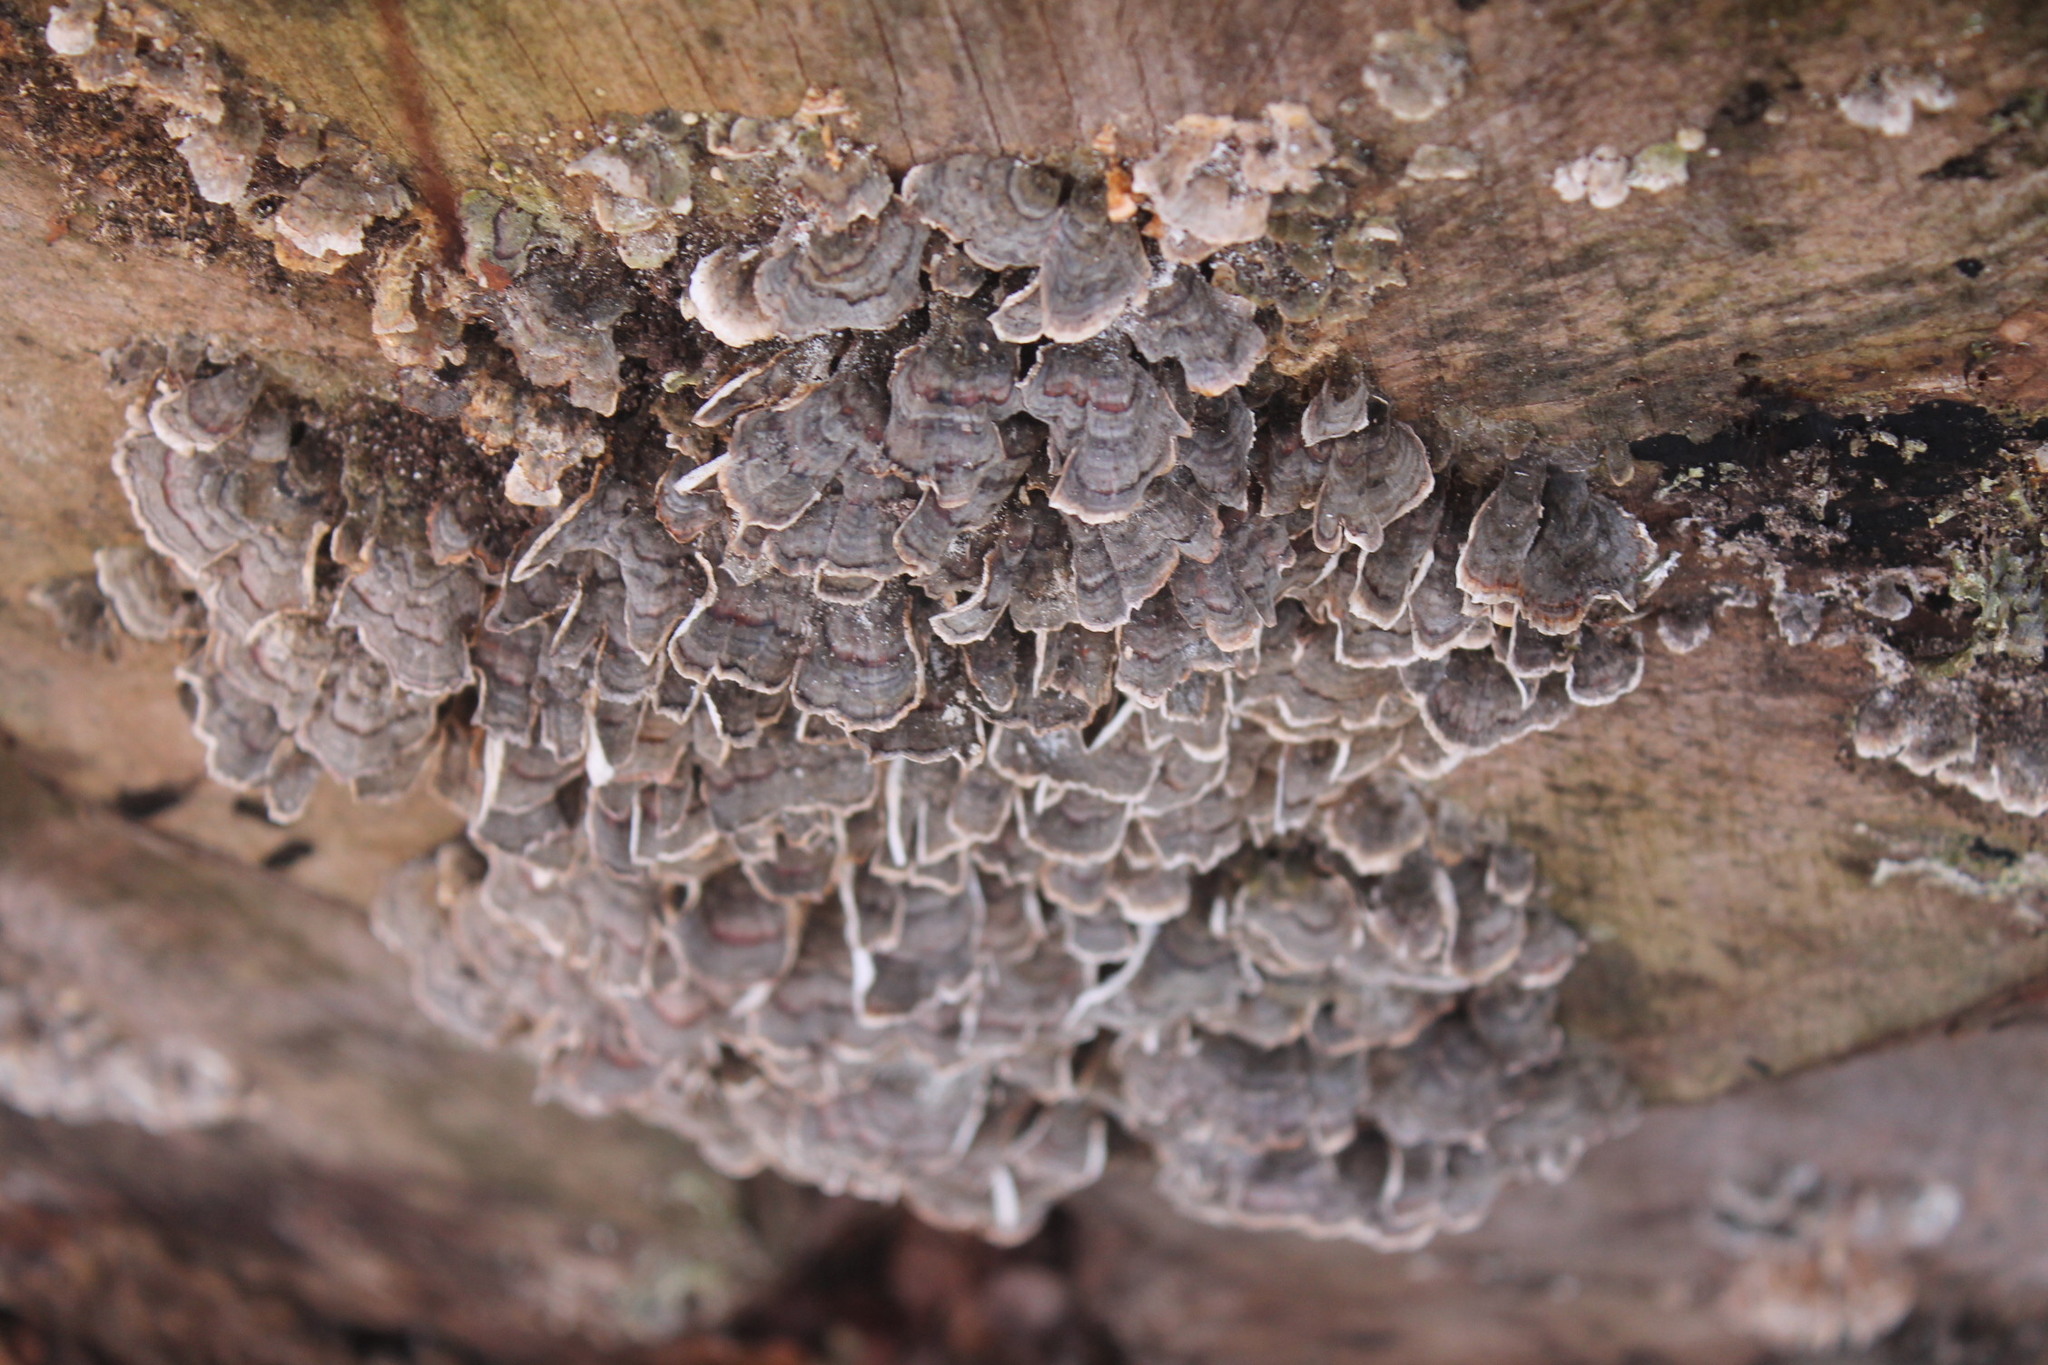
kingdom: Fungi
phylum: Basidiomycota
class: Agaricomycetes
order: Polyporales
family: Polyporaceae
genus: Trametes
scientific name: Trametes versicolor
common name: Turkeytail
